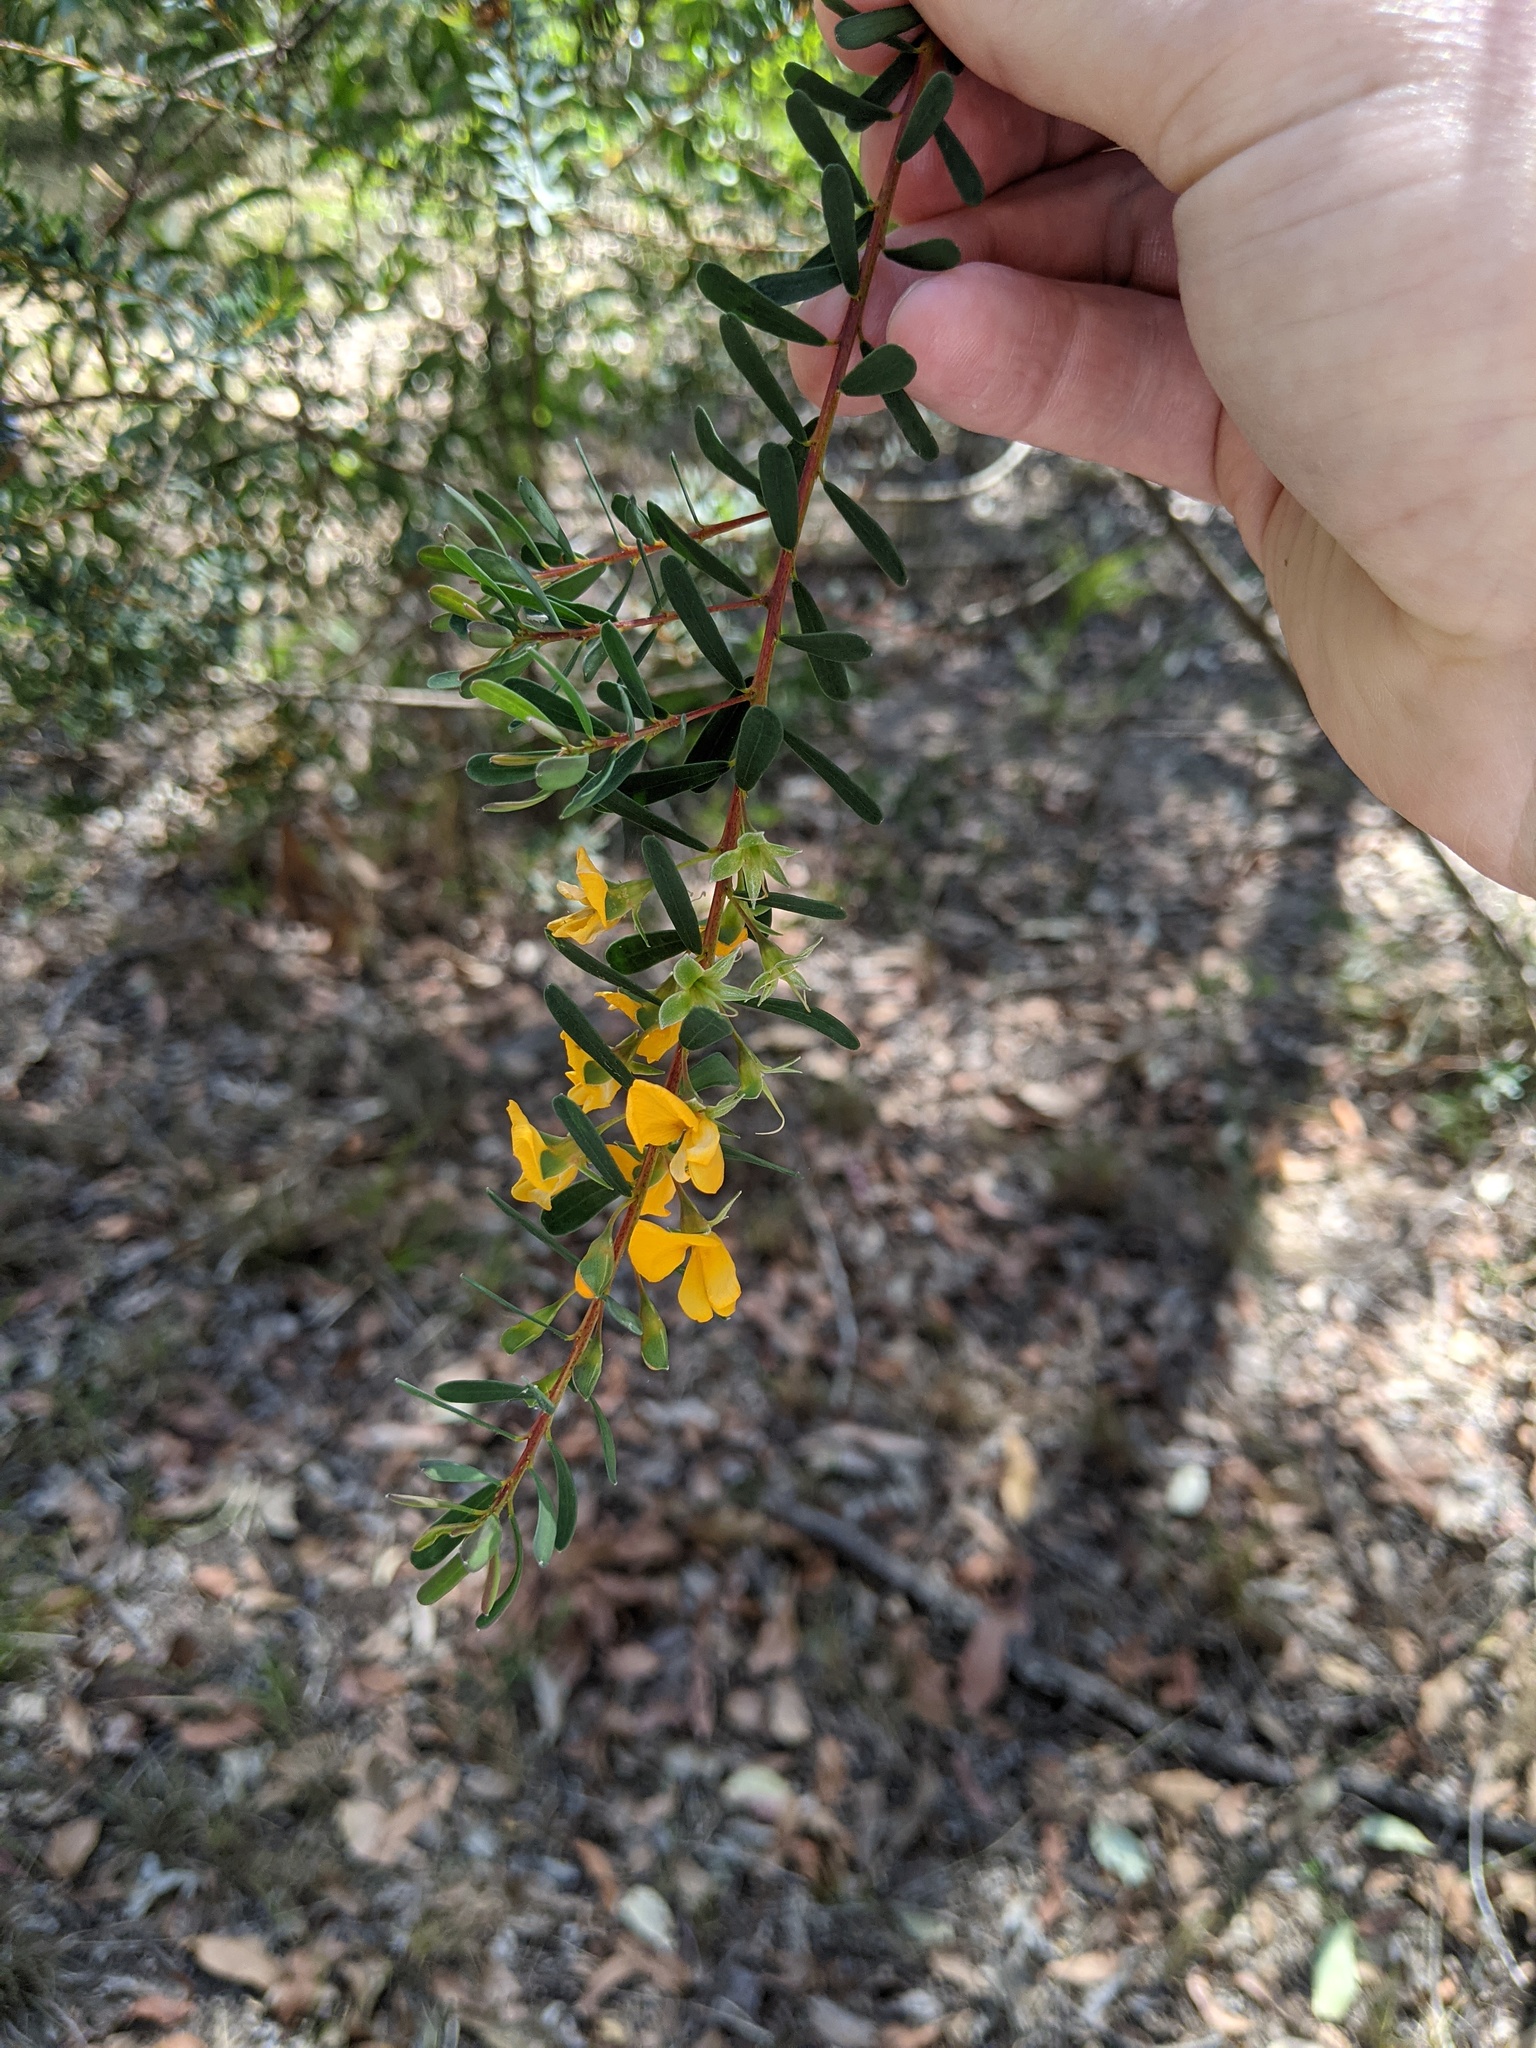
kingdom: Plantae
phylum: Tracheophyta
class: Magnoliopsida
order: Fabales
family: Fabaceae
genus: Pultenaea
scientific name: Pultenaea euchila
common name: Large-flower bush-pea
